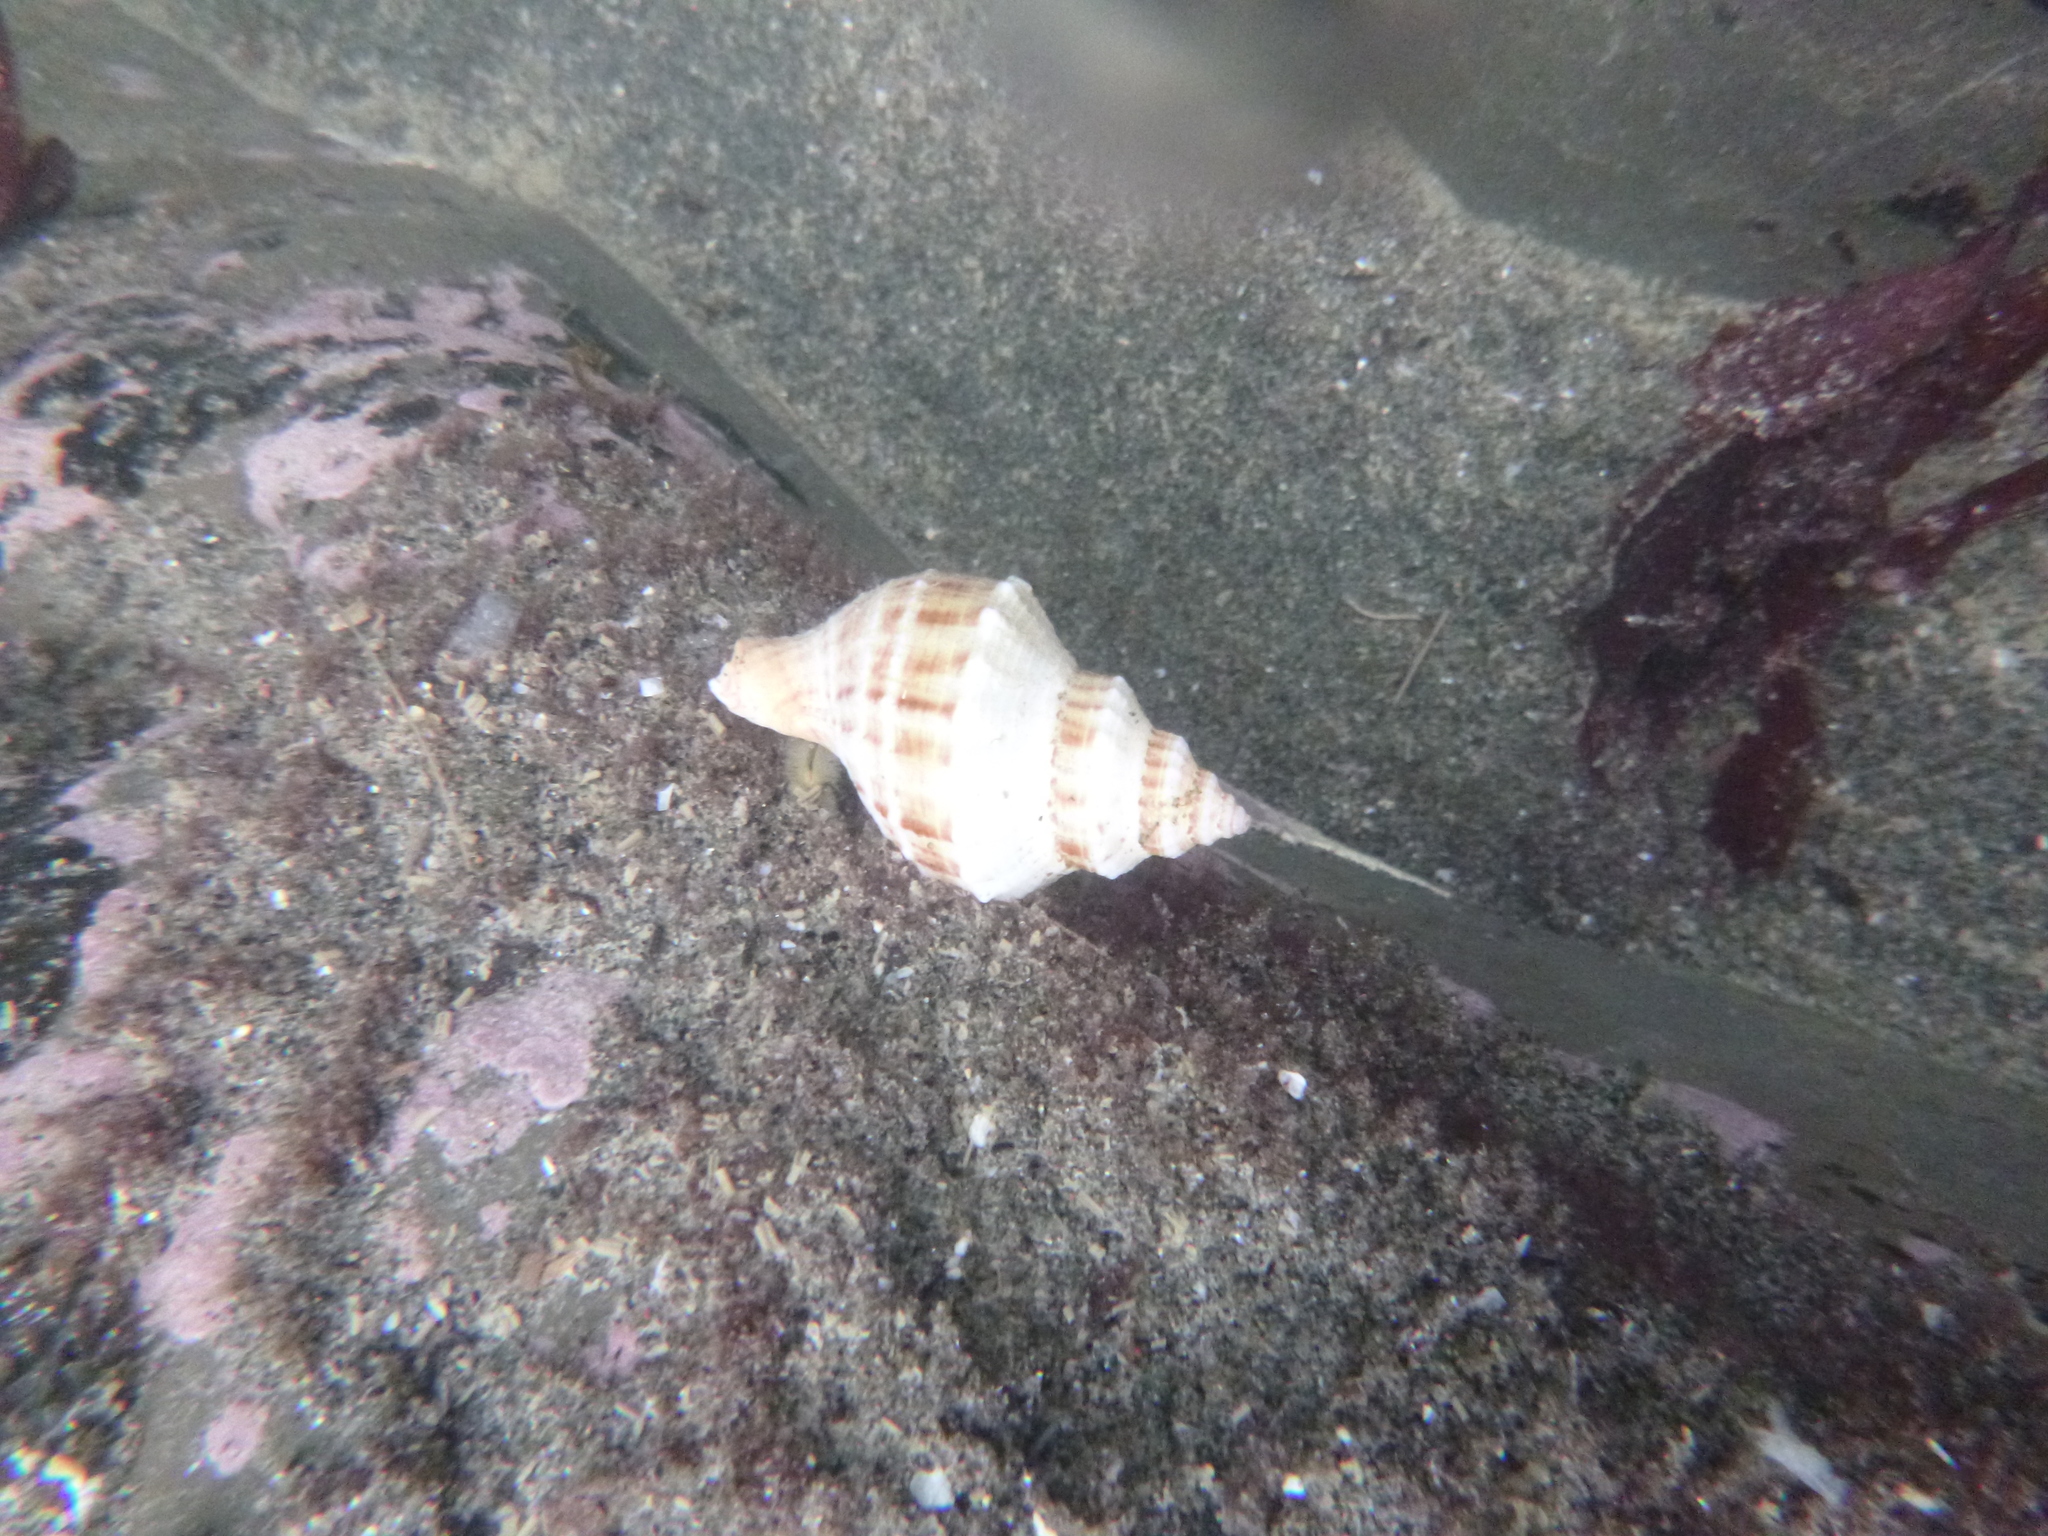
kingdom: Animalia
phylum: Mollusca
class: Gastropoda
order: Neogastropoda
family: Prosiphonidae
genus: Austrofusus
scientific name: Austrofusus glans
